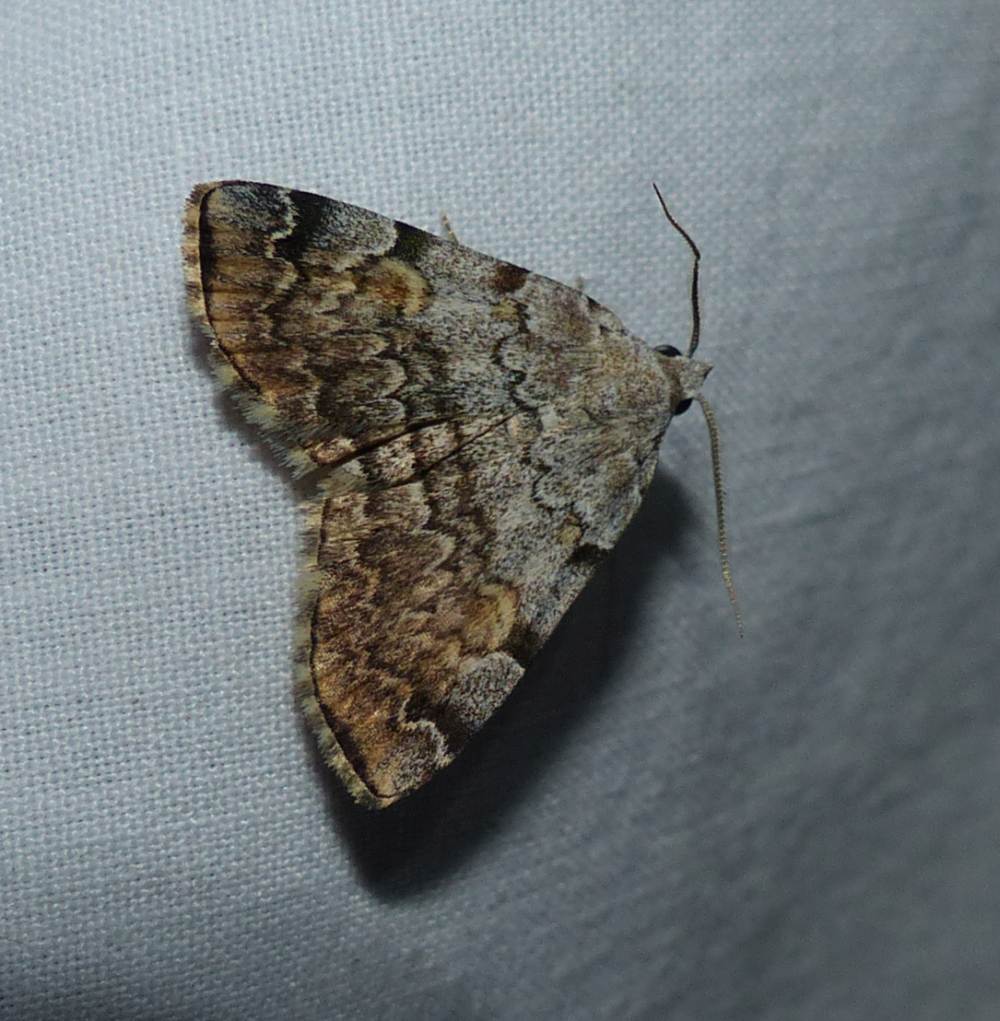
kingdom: Animalia
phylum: Arthropoda
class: Insecta
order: Lepidoptera
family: Erebidae
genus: Idia
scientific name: Idia americalis
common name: American idia moth
